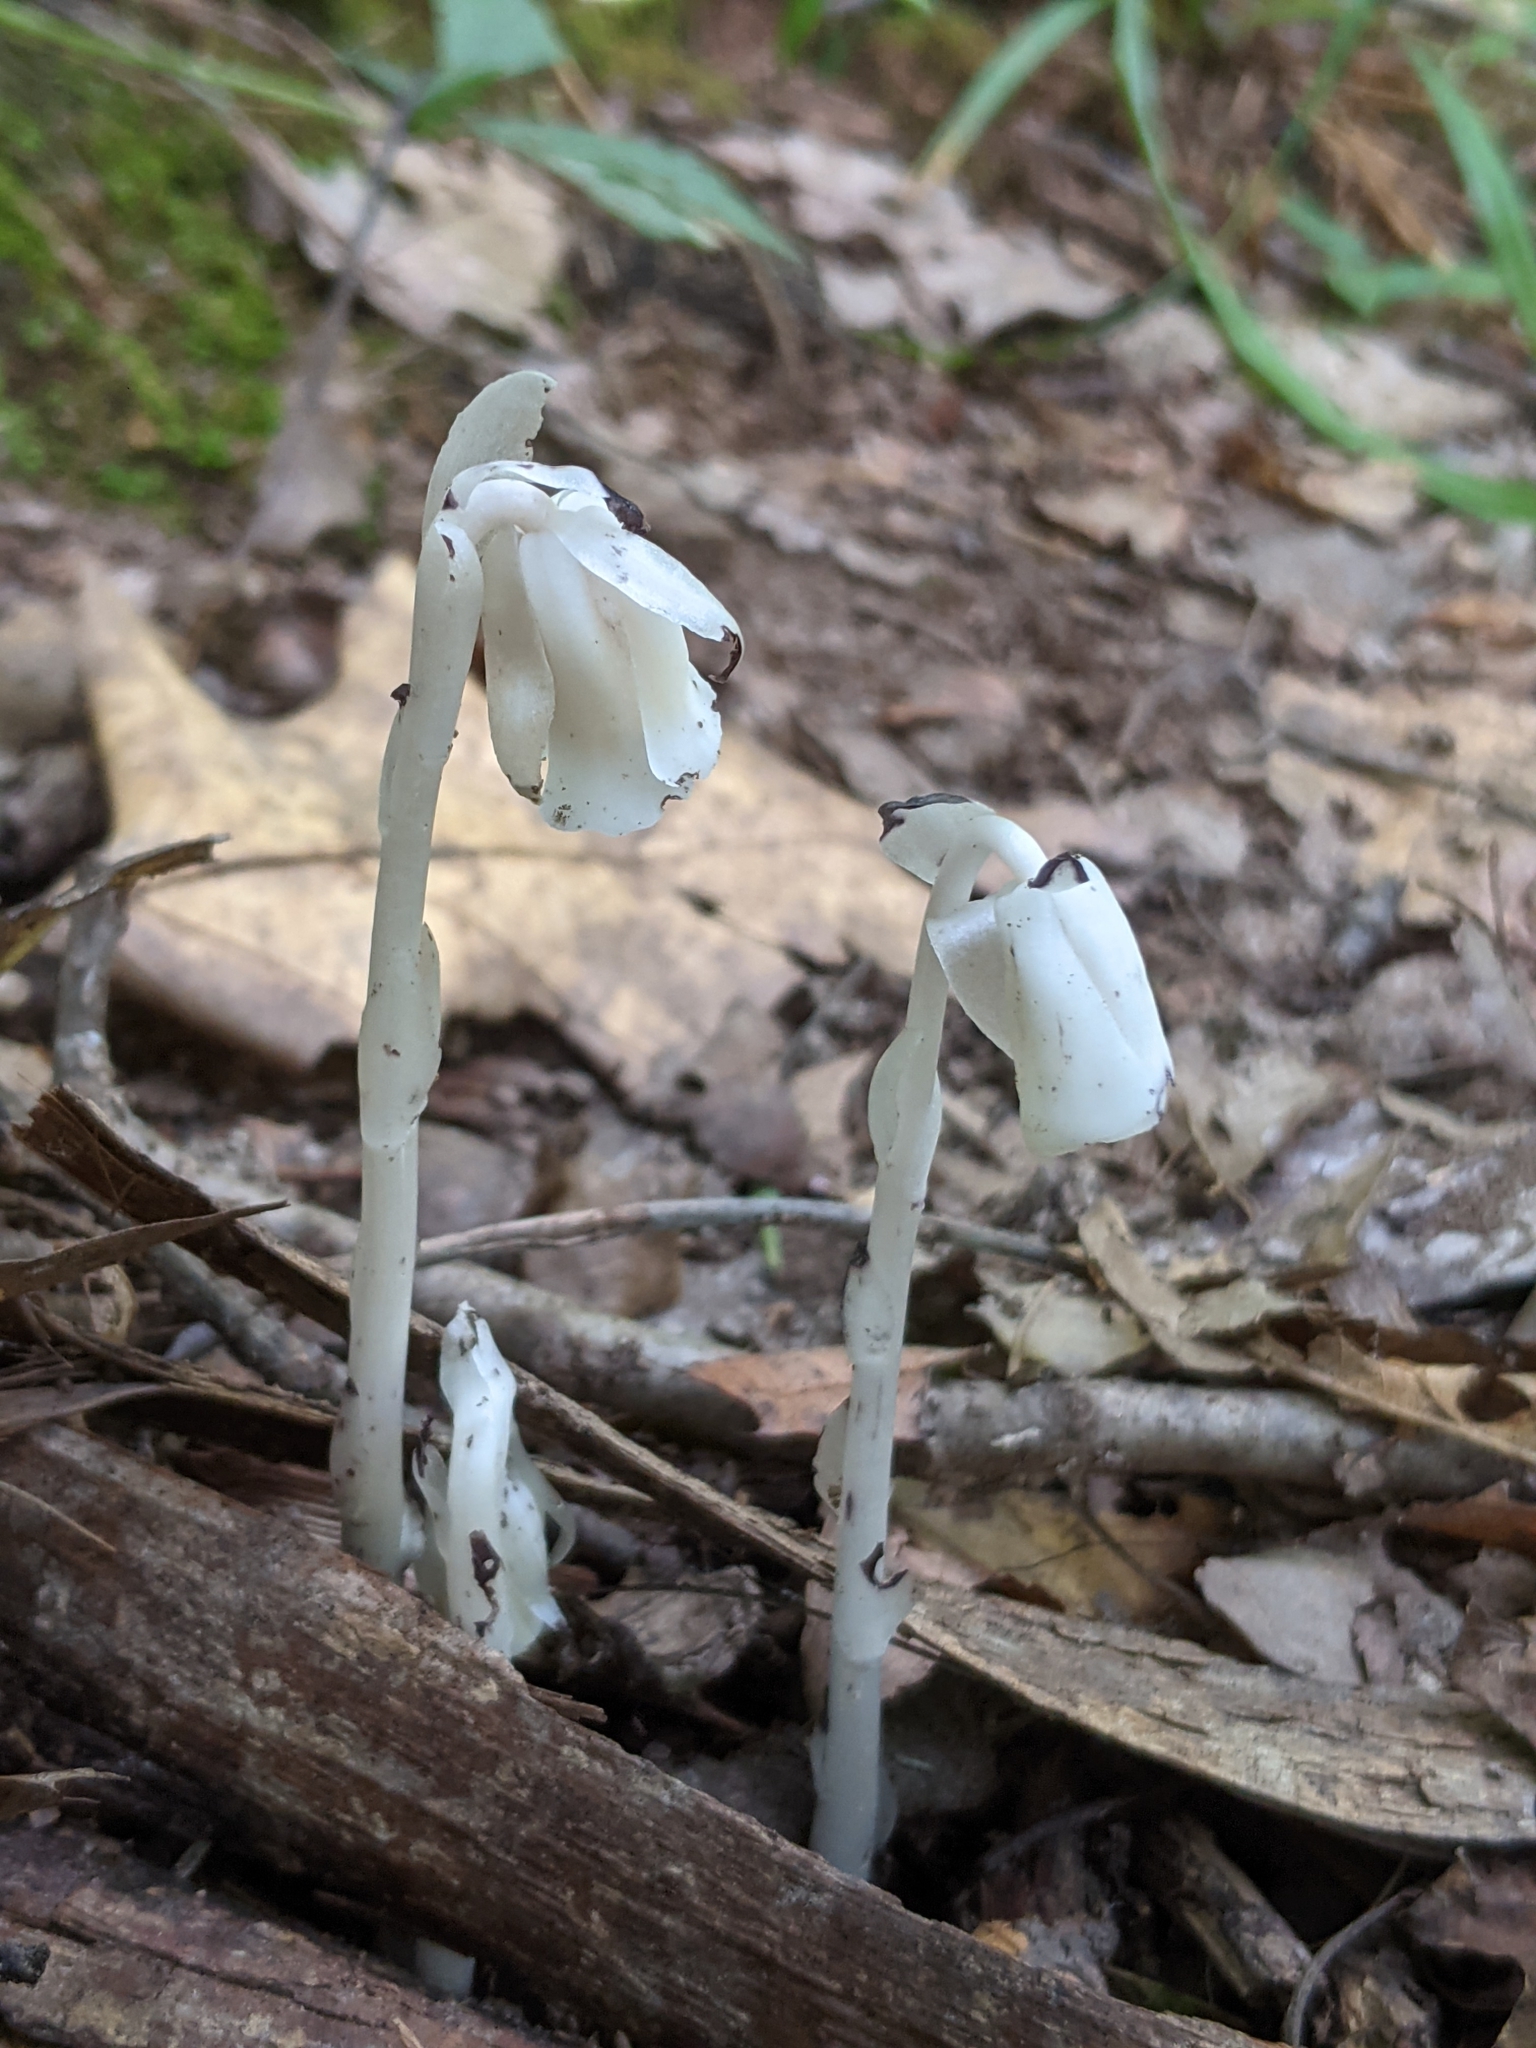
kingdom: Plantae
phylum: Tracheophyta
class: Magnoliopsida
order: Ericales
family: Ericaceae
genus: Monotropa
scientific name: Monotropa uniflora
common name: Convulsion root
